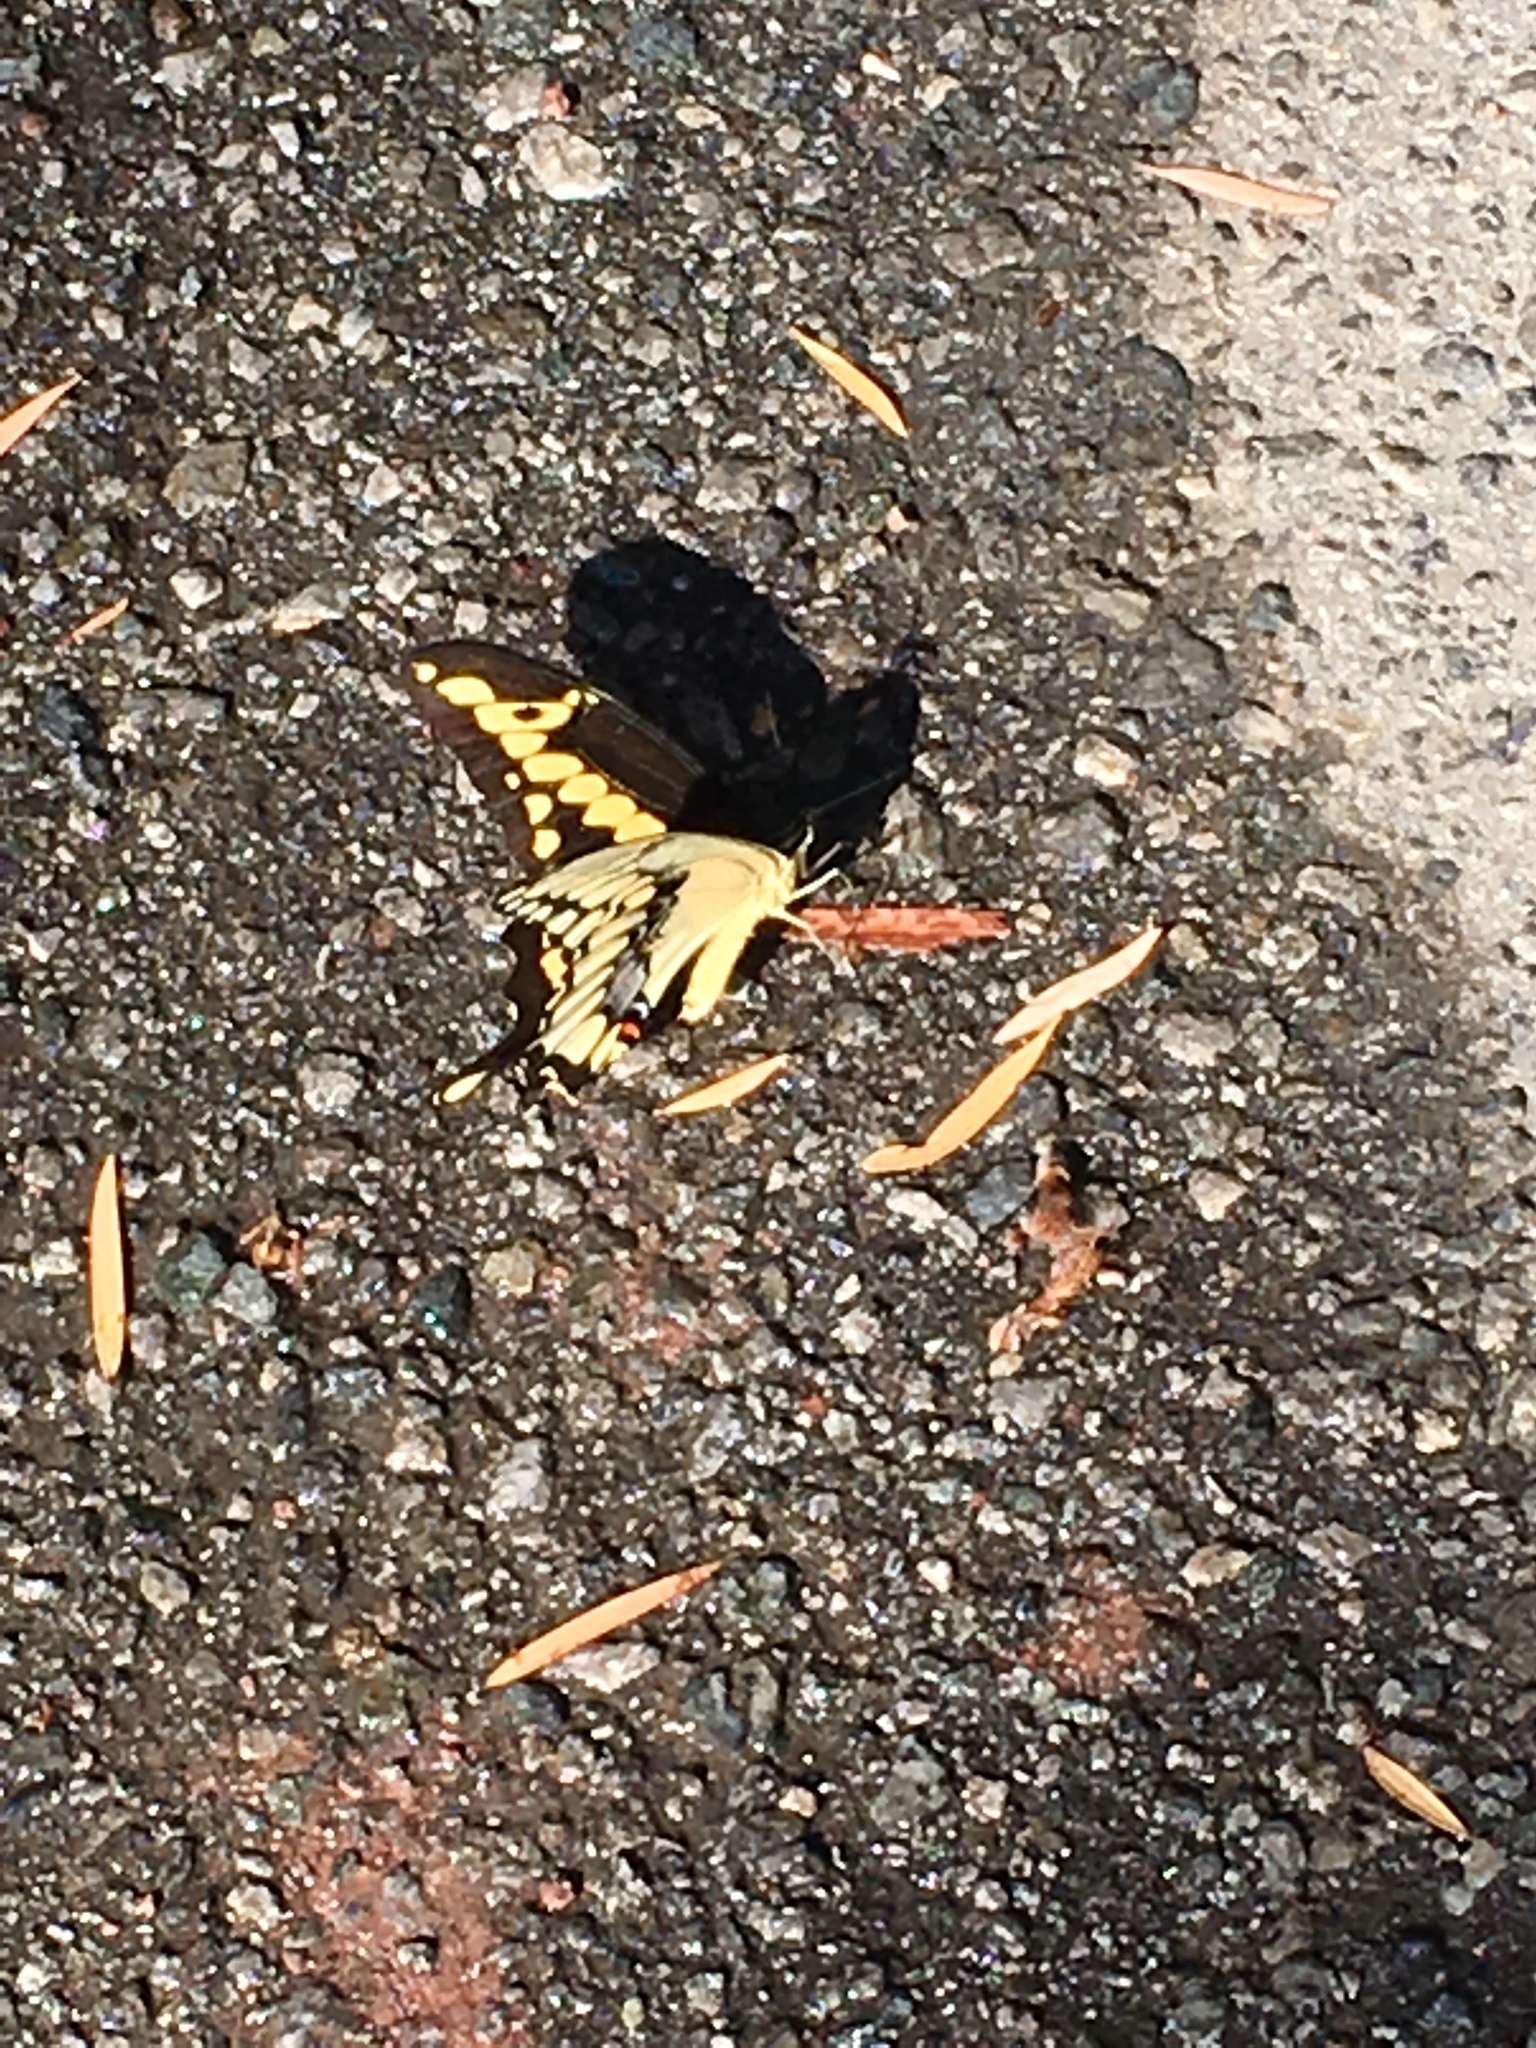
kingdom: Animalia
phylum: Arthropoda
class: Insecta
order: Lepidoptera
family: Papilionidae
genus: Papilio
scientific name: Papilio rumiko
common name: Western giant swallowtail
